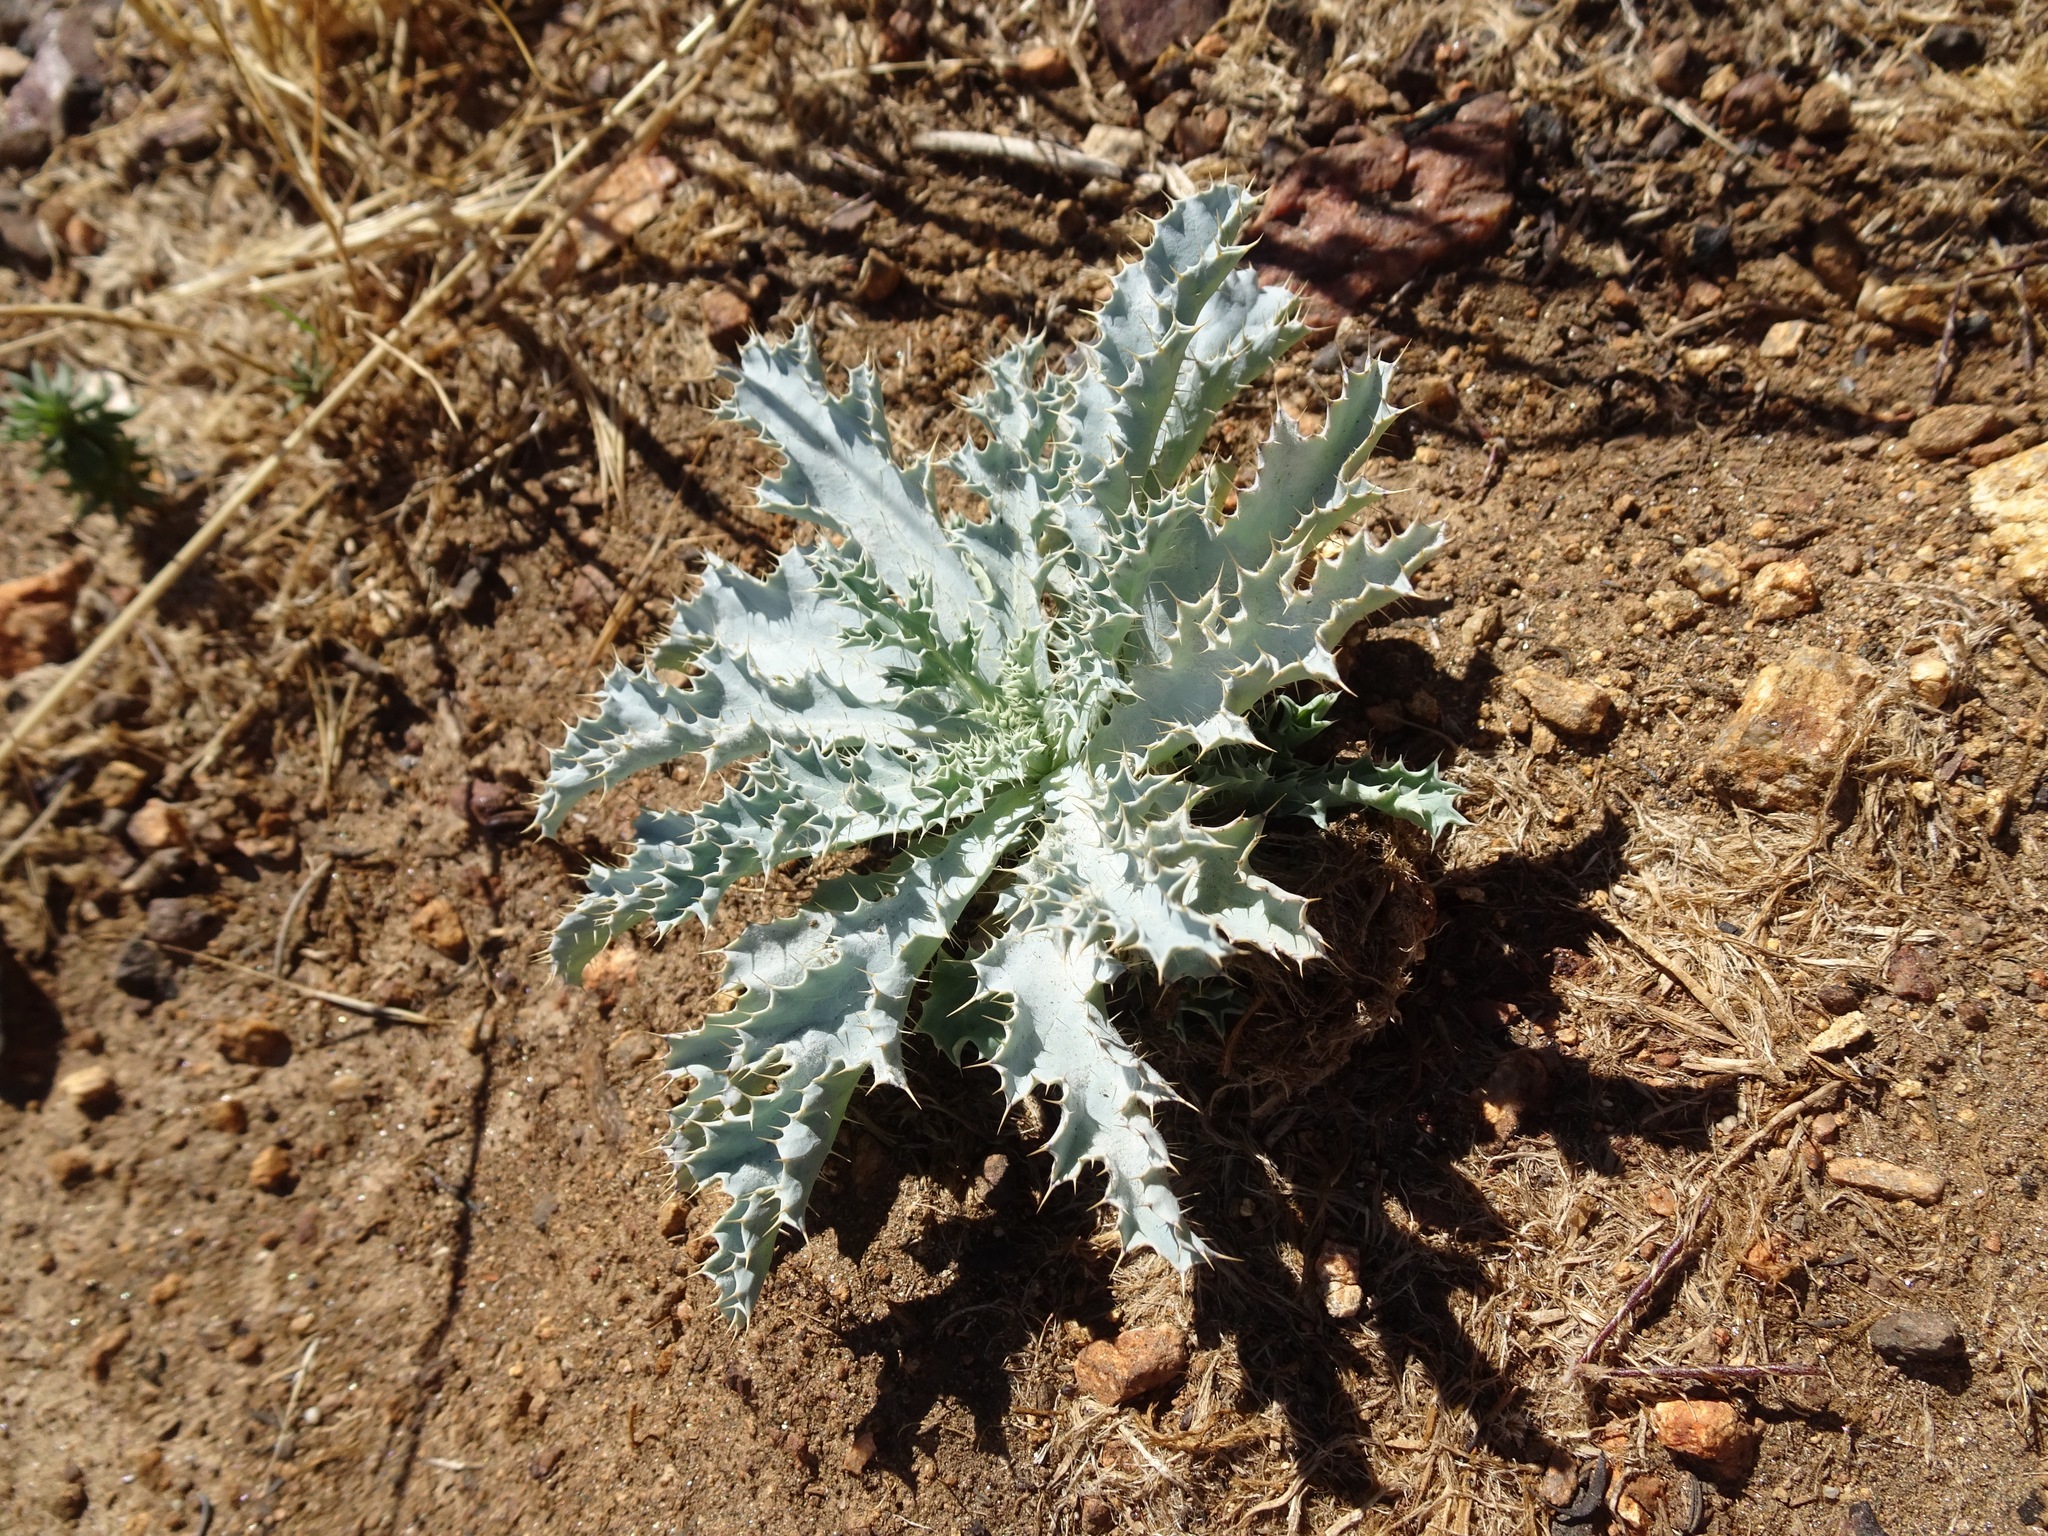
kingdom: Plantae
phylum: Tracheophyta
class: Magnoliopsida
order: Ranunculales
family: Papaveraceae
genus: Argemone
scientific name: Argemone munita
